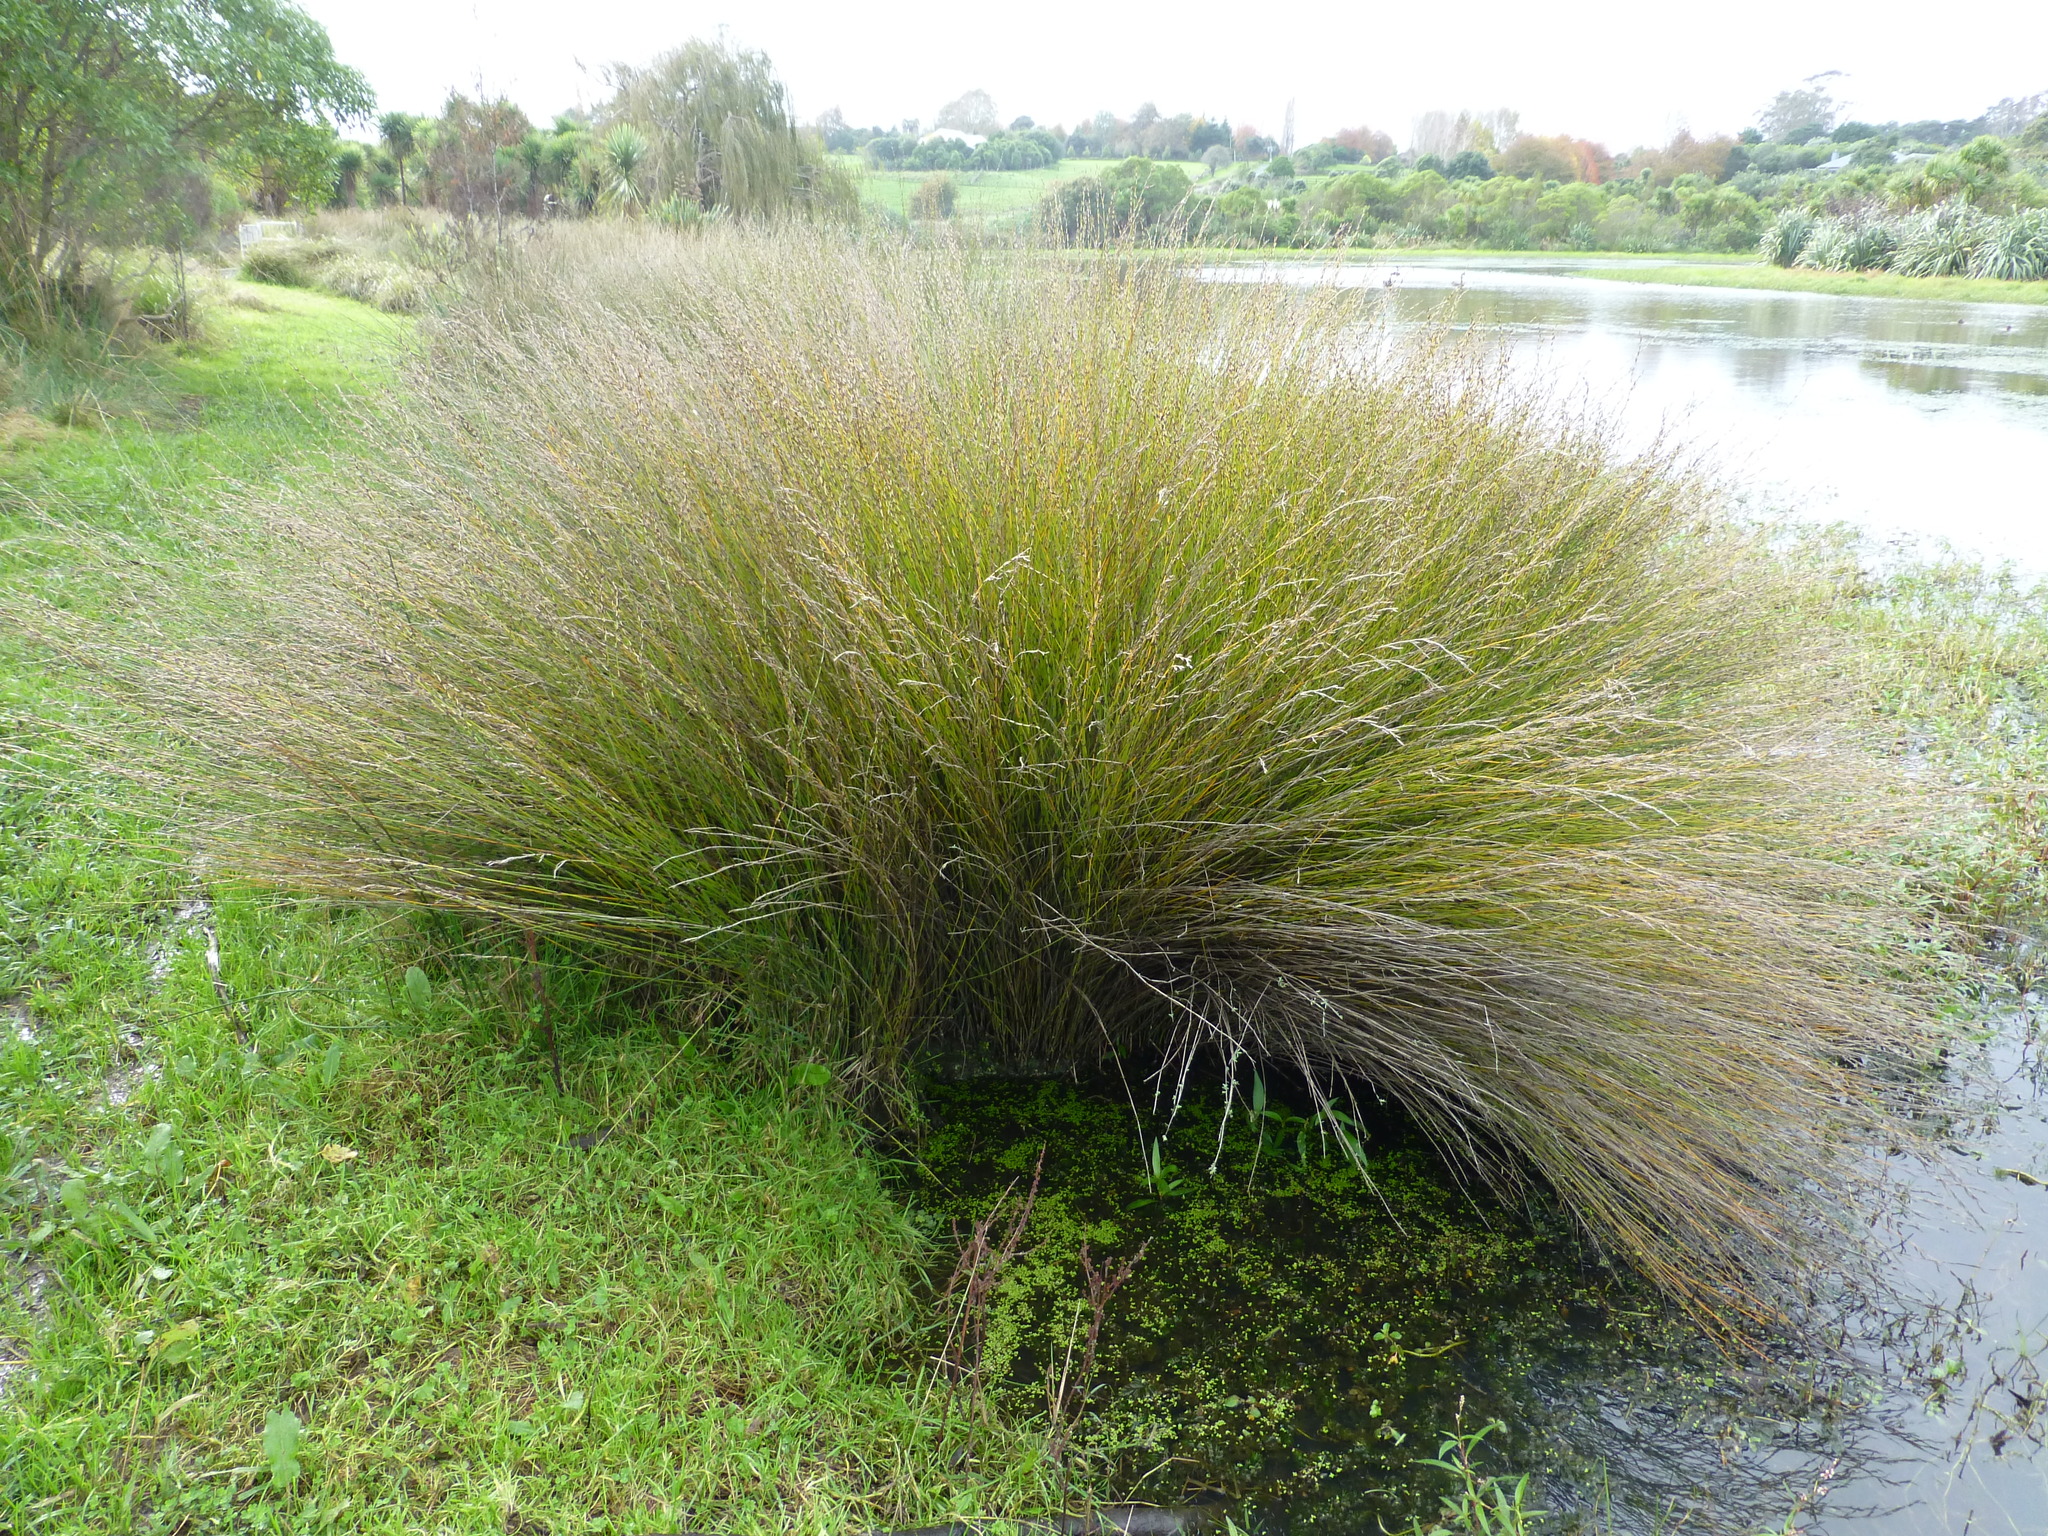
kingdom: Plantae
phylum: Tracheophyta
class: Liliopsida
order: Poales
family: Restionaceae
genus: Apodasmia
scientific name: Apodasmia similis
